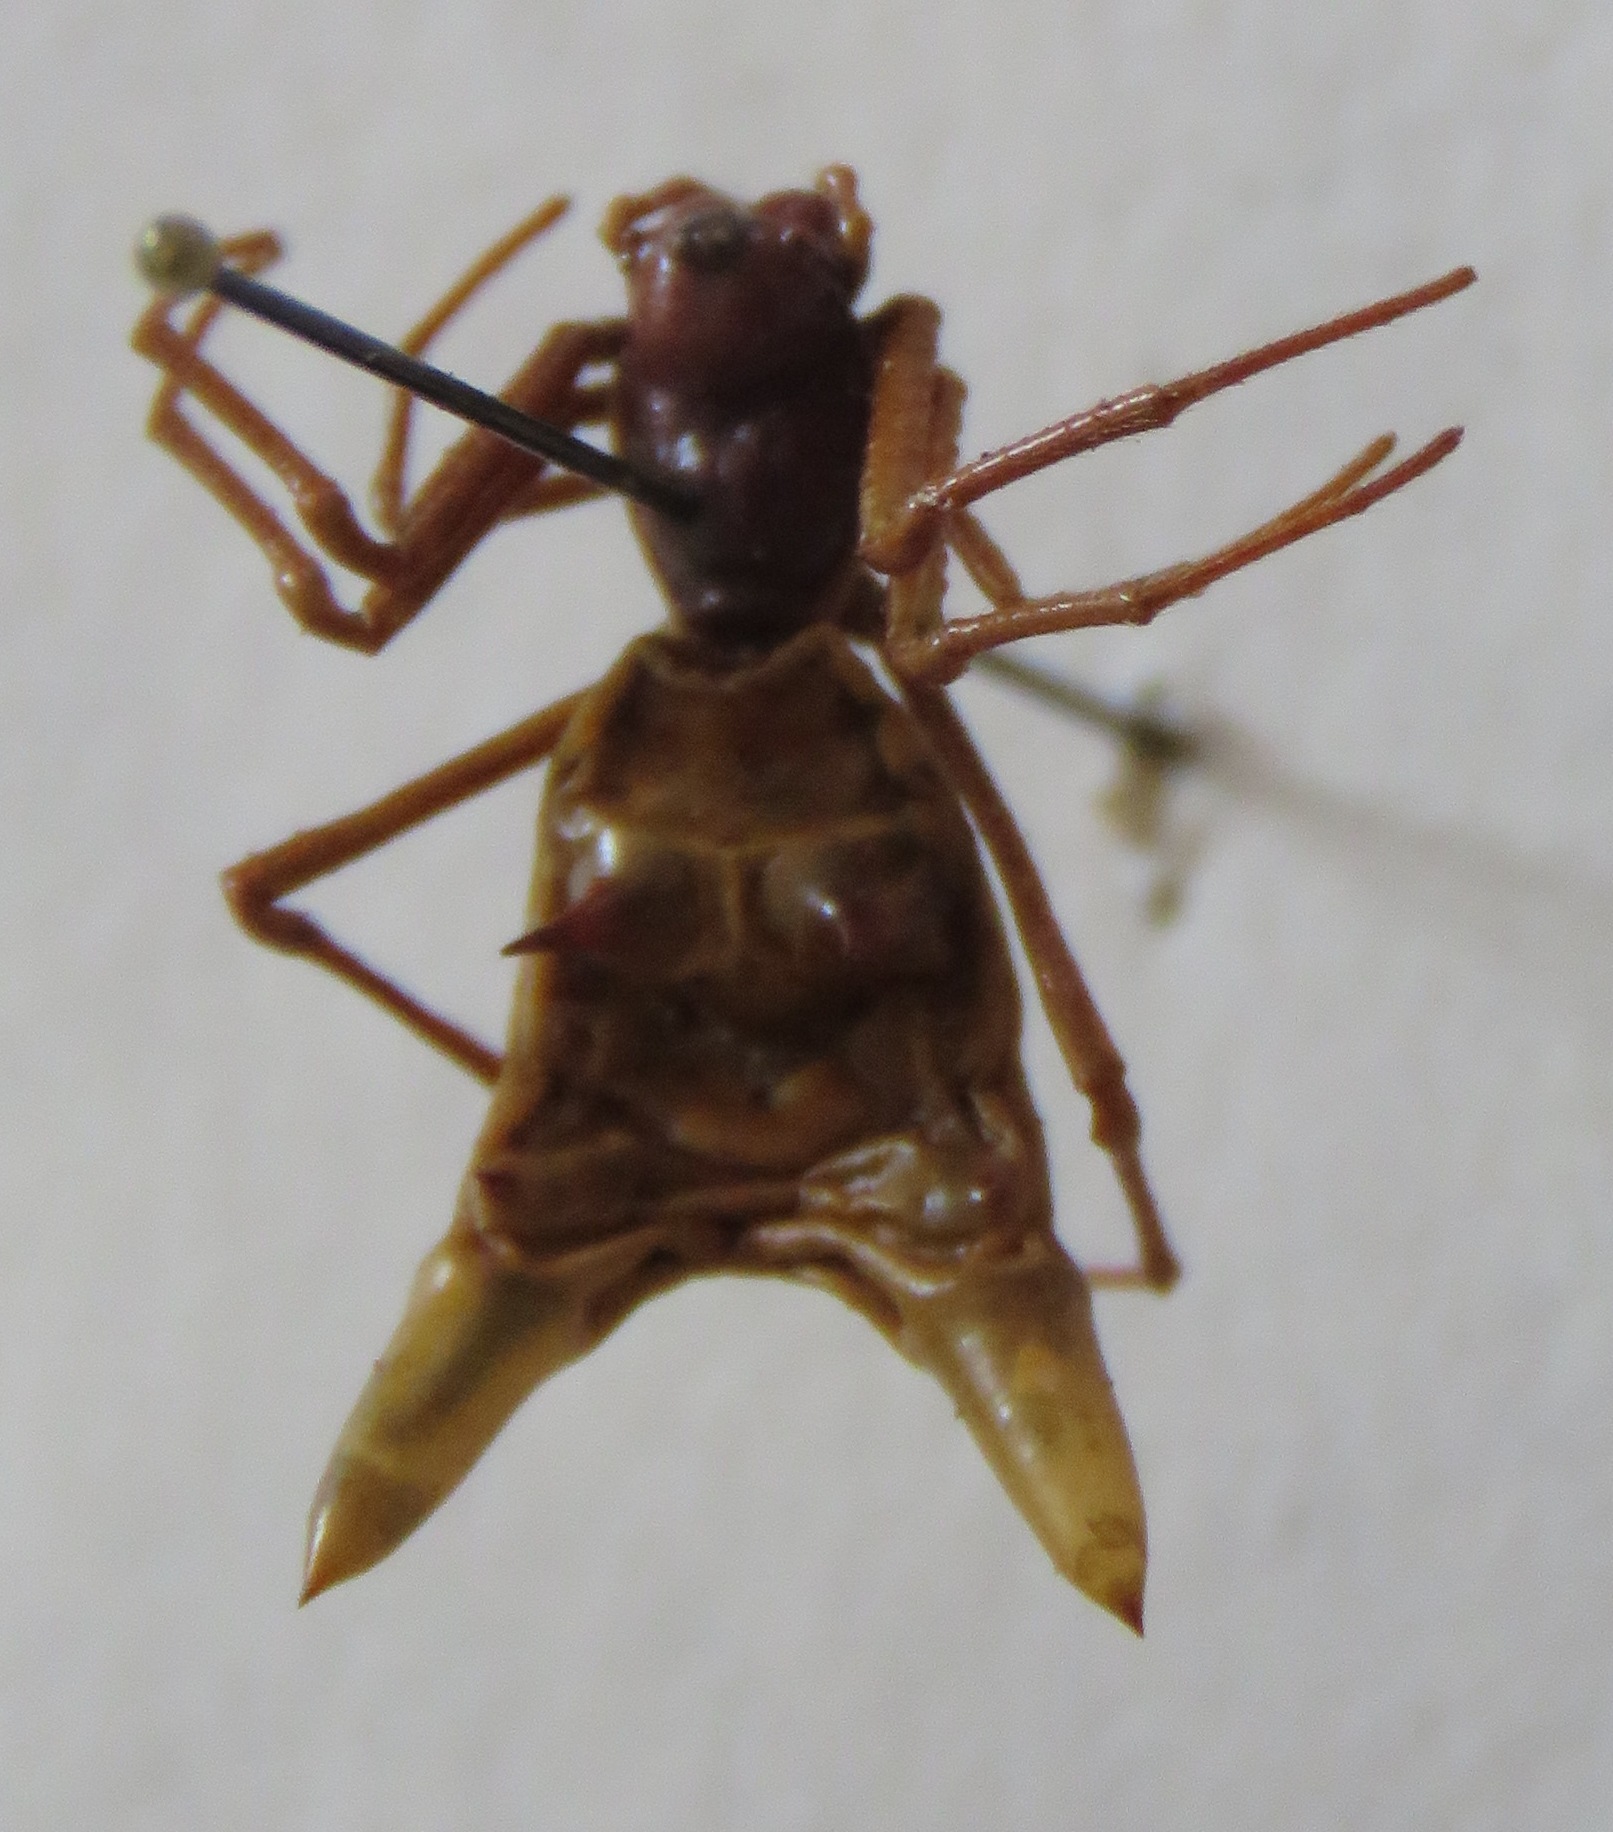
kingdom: Animalia
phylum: Arthropoda
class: Arachnida
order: Araneae
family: Araneidae
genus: Micrathena
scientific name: Micrathena sexspinosa
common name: Orb weavers
